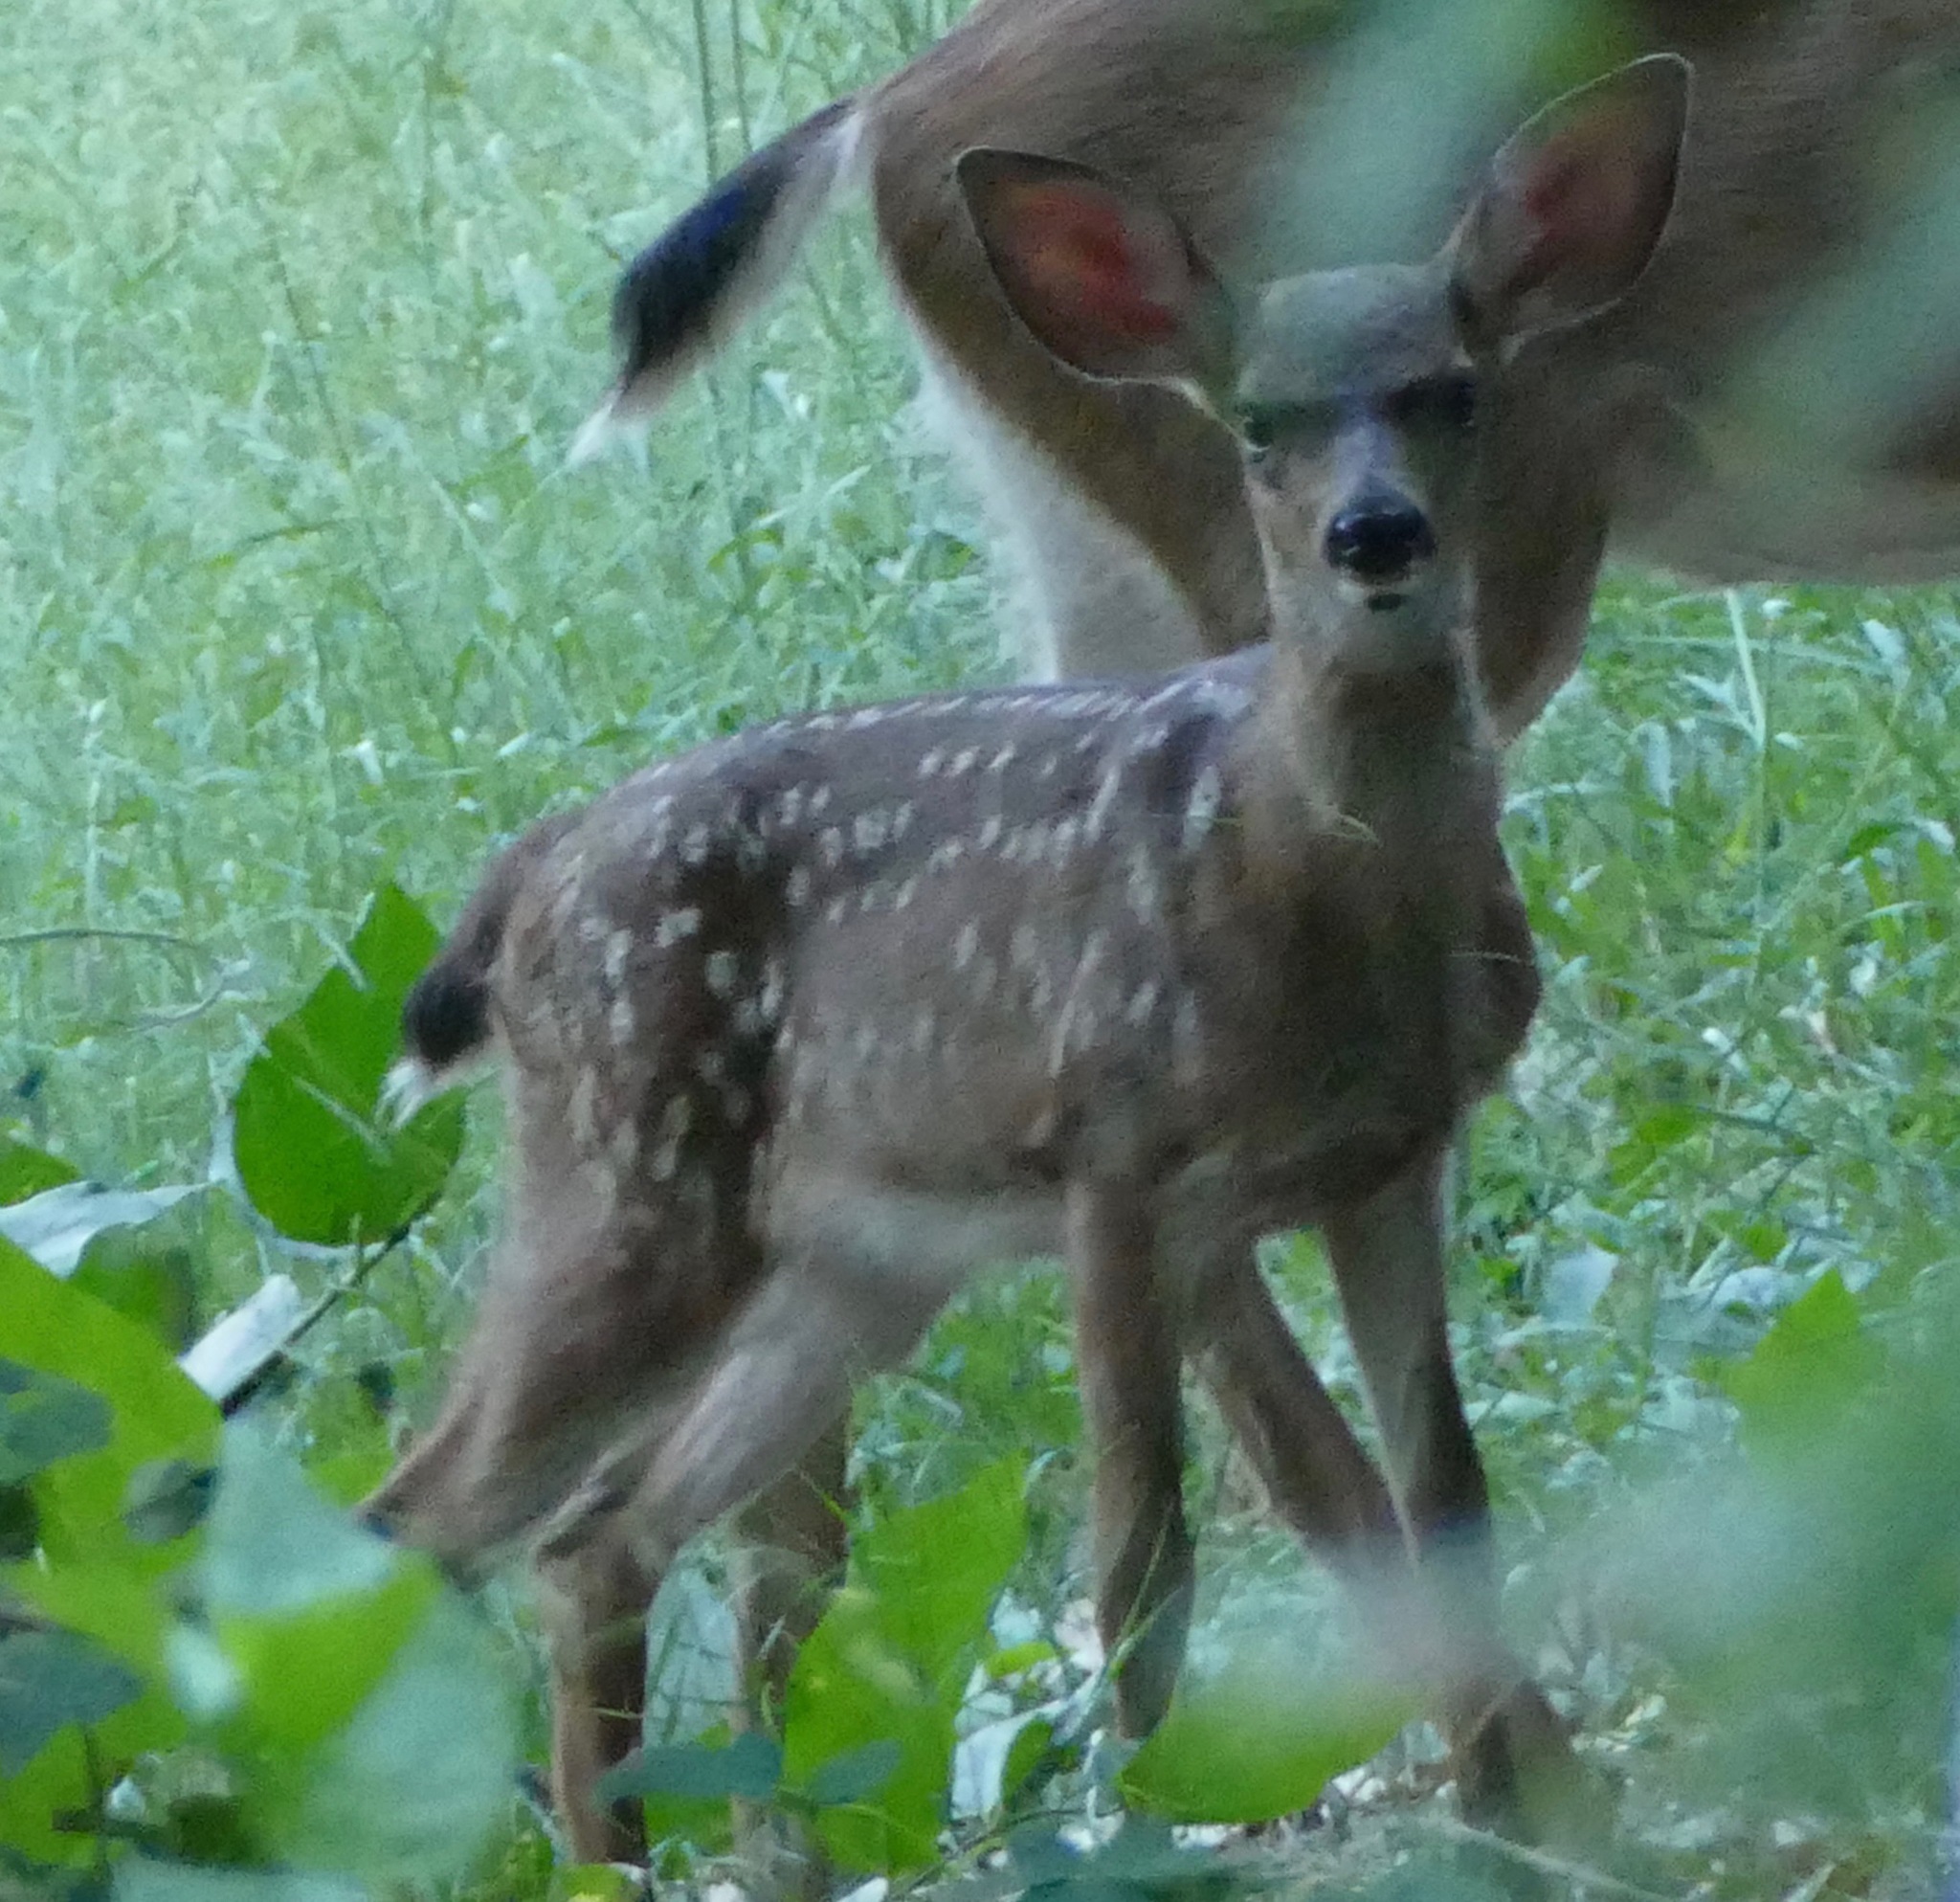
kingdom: Animalia
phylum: Chordata
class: Mammalia
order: Artiodactyla
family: Cervidae
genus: Odocoileus
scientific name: Odocoileus hemionus
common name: Mule deer
